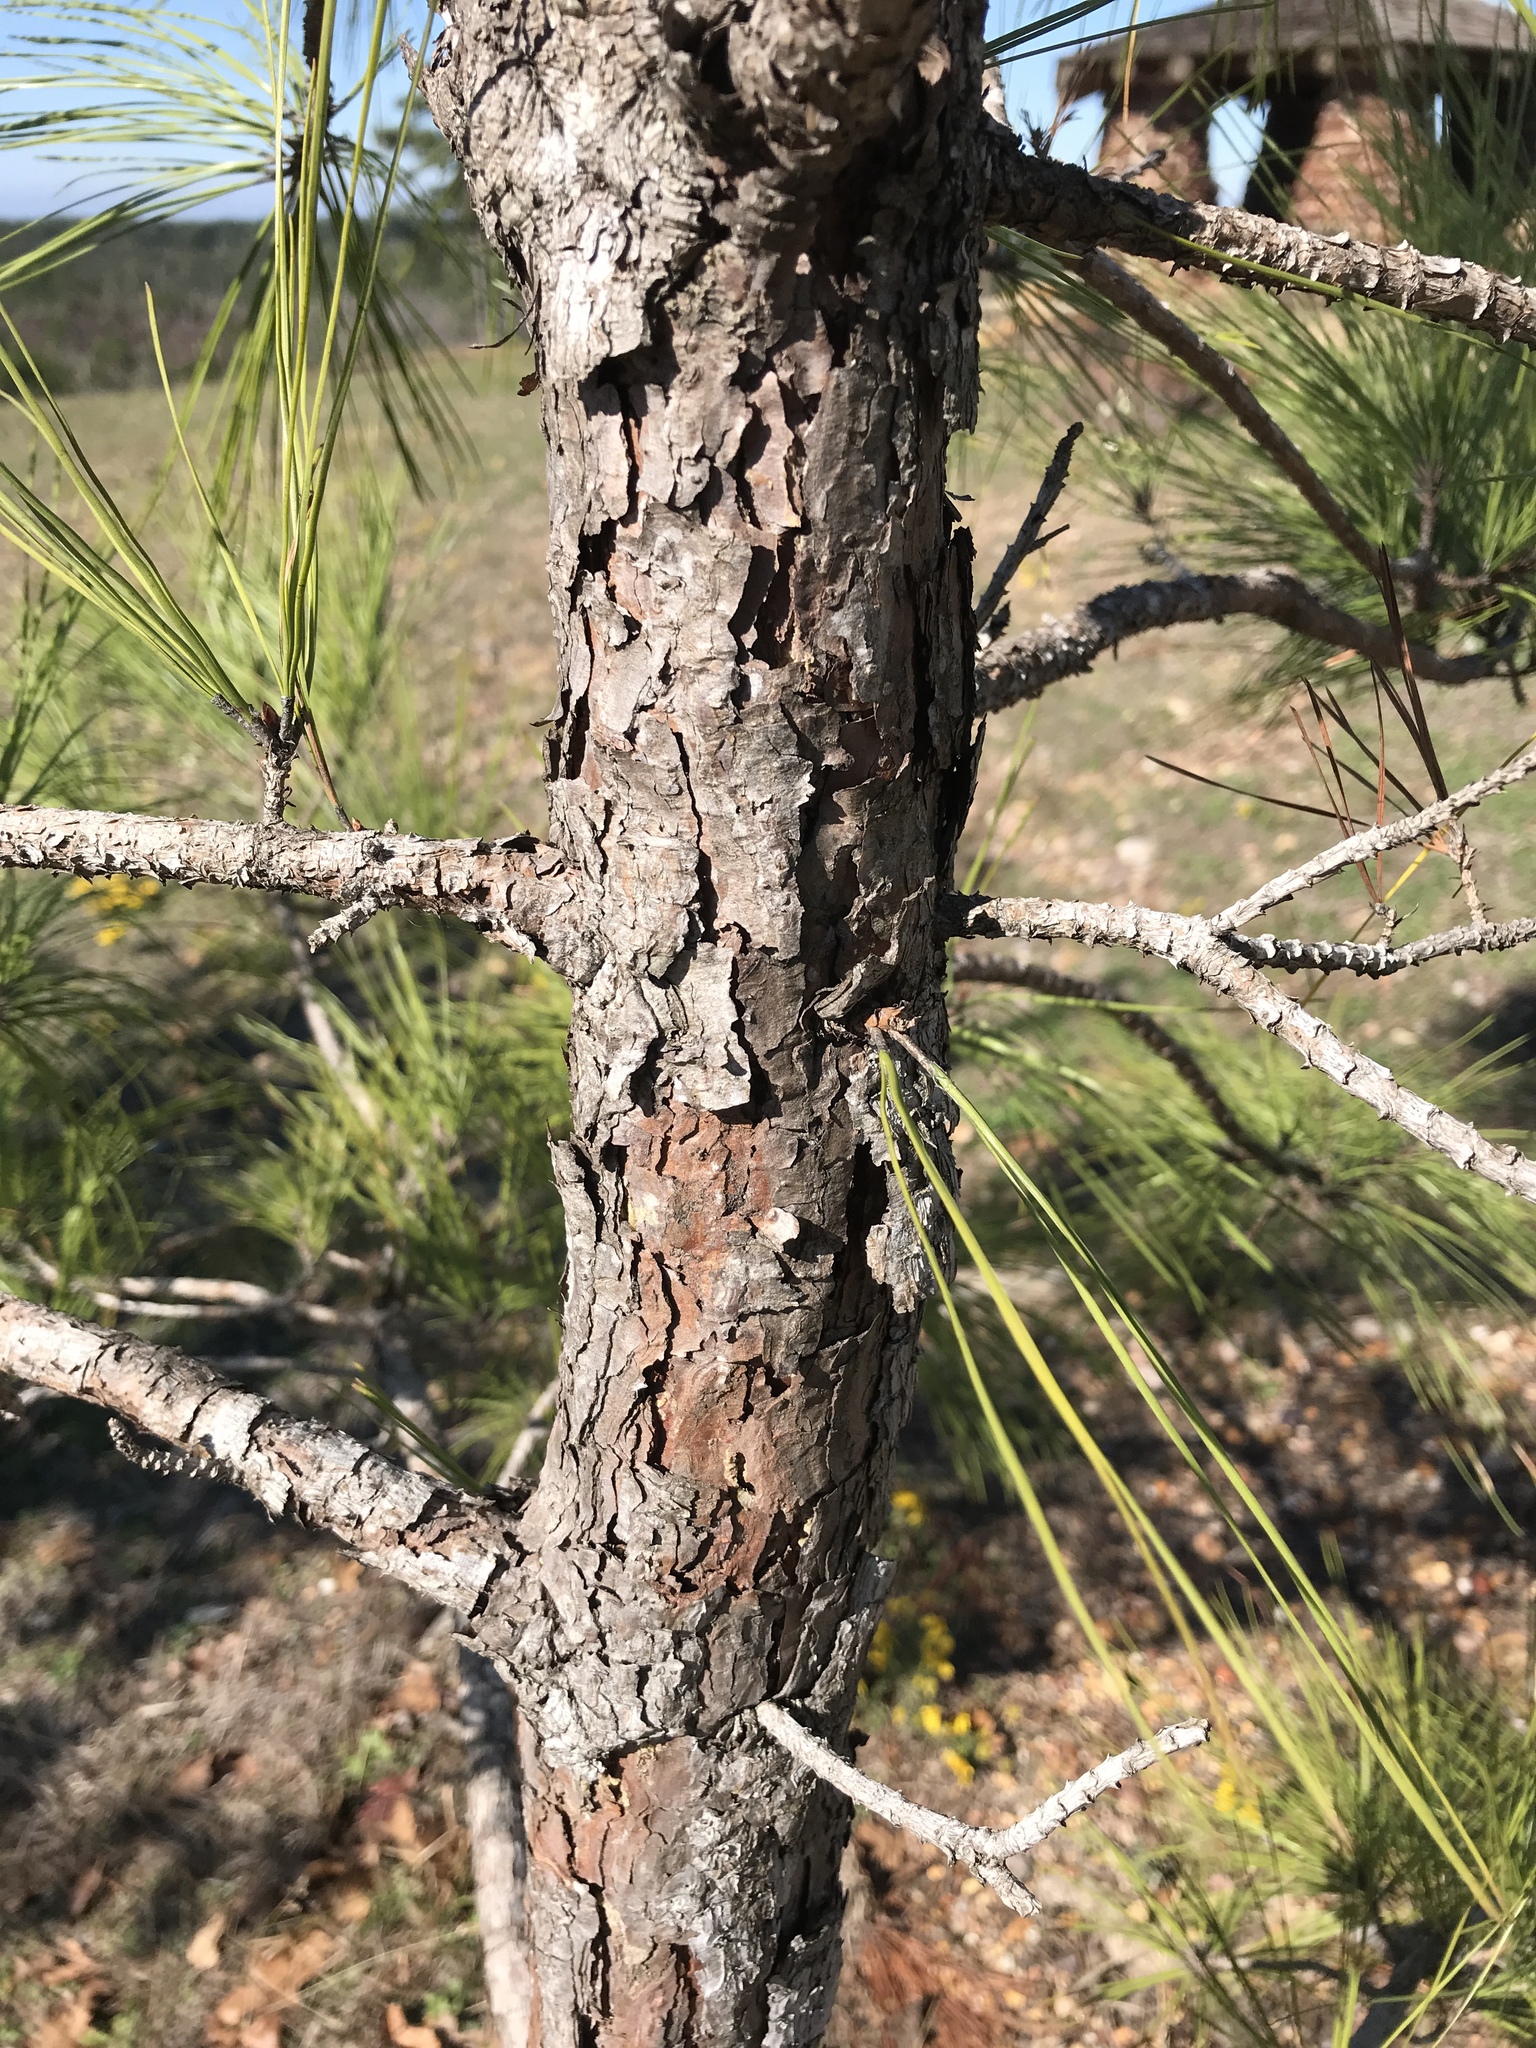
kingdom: Plantae
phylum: Tracheophyta
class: Pinopsida
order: Pinales
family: Pinaceae
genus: Pinus
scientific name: Pinus taeda
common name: Loblolly pine
